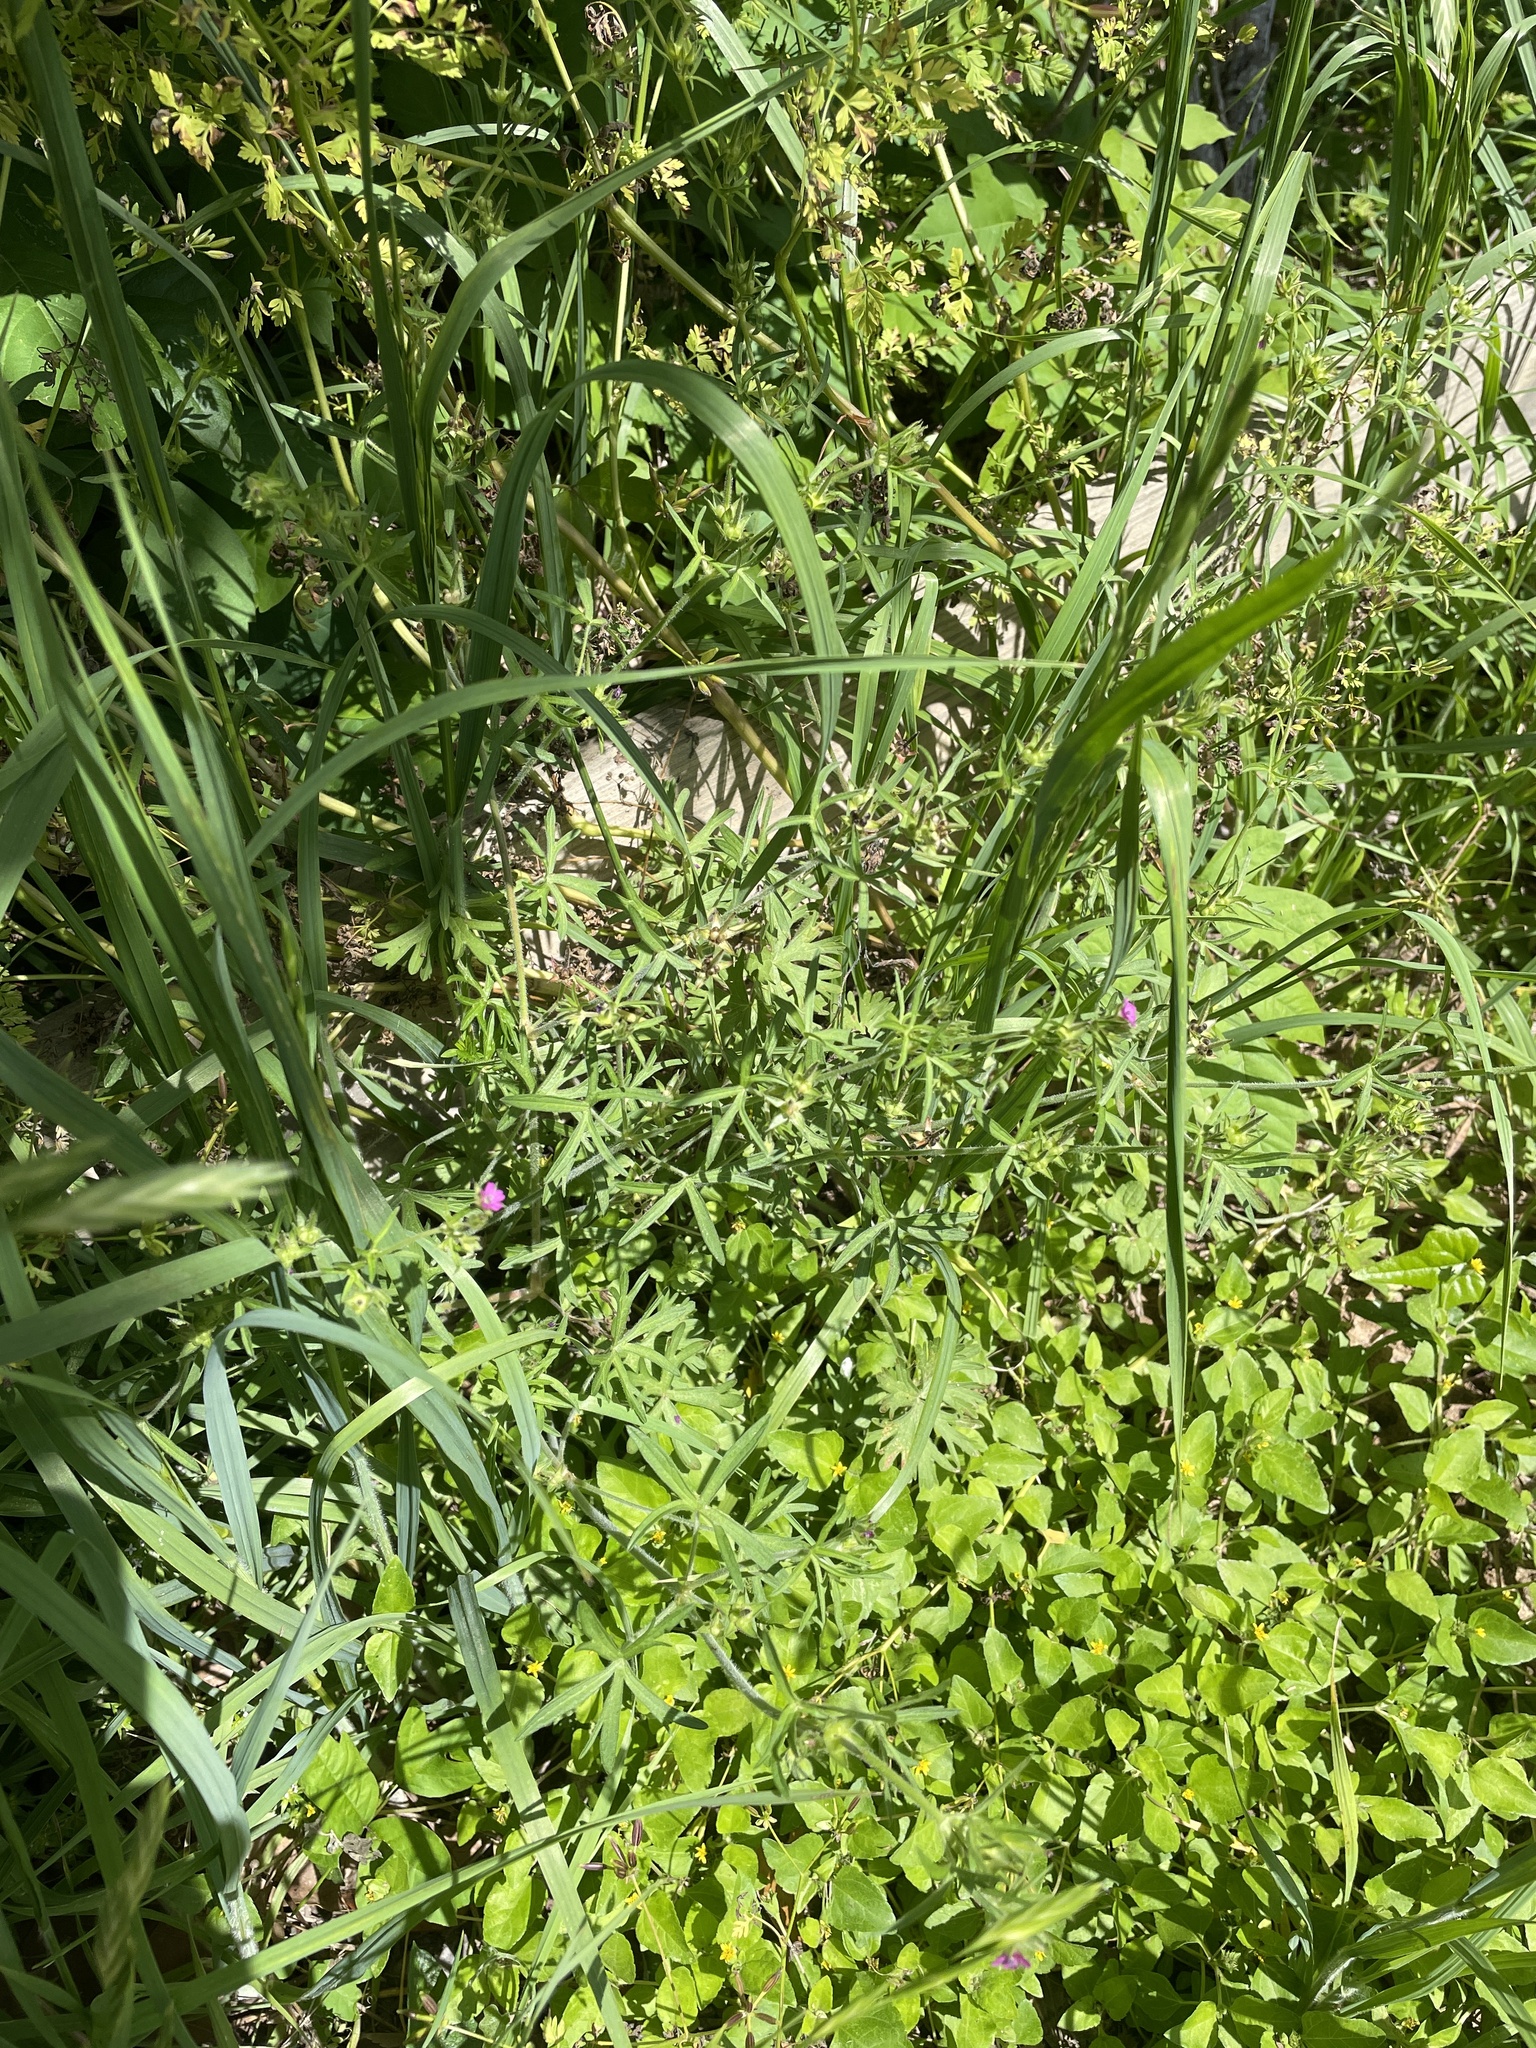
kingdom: Plantae
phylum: Tracheophyta
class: Magnoliopsida
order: Geraniales
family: Geraniaceae
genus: Geranium
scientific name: Geranium dissectum
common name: Cut-leaved crane's-bill
